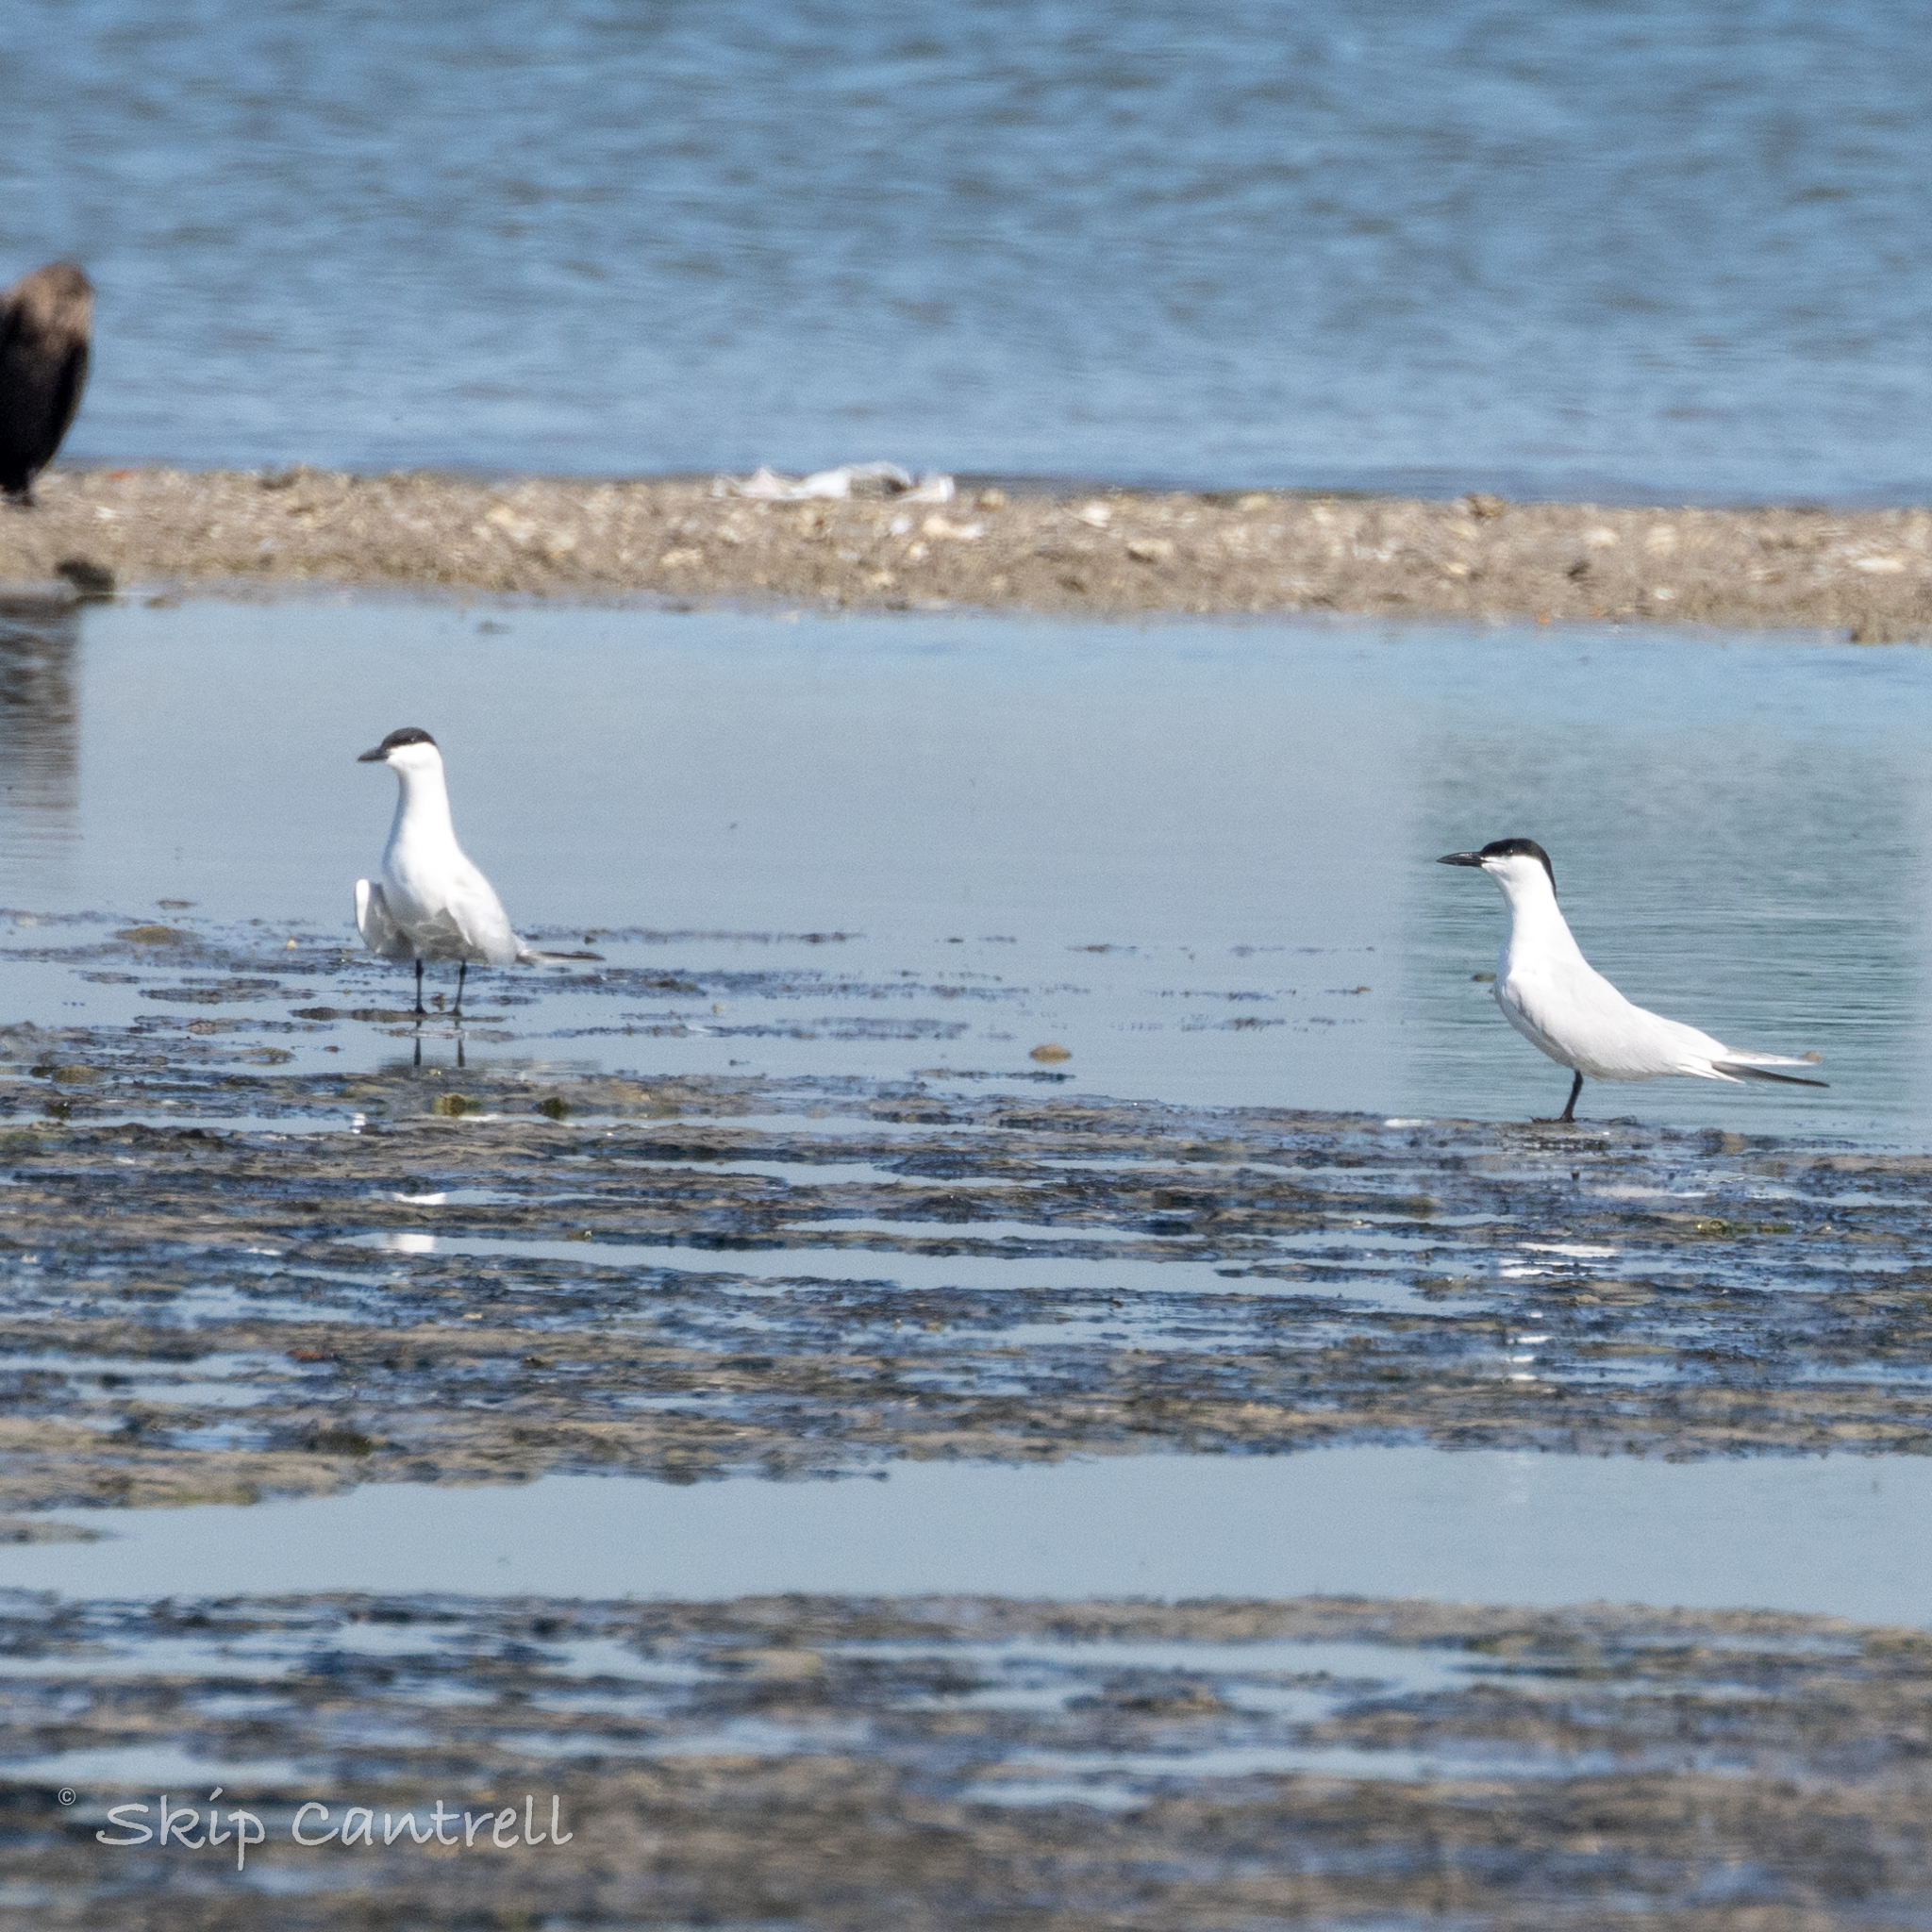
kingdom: Animalia
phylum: Chordata
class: Aves
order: Charadriiformes
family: Laridae
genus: Gelochelidon
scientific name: Gelochelidon nilotica
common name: Gull-billed tern
